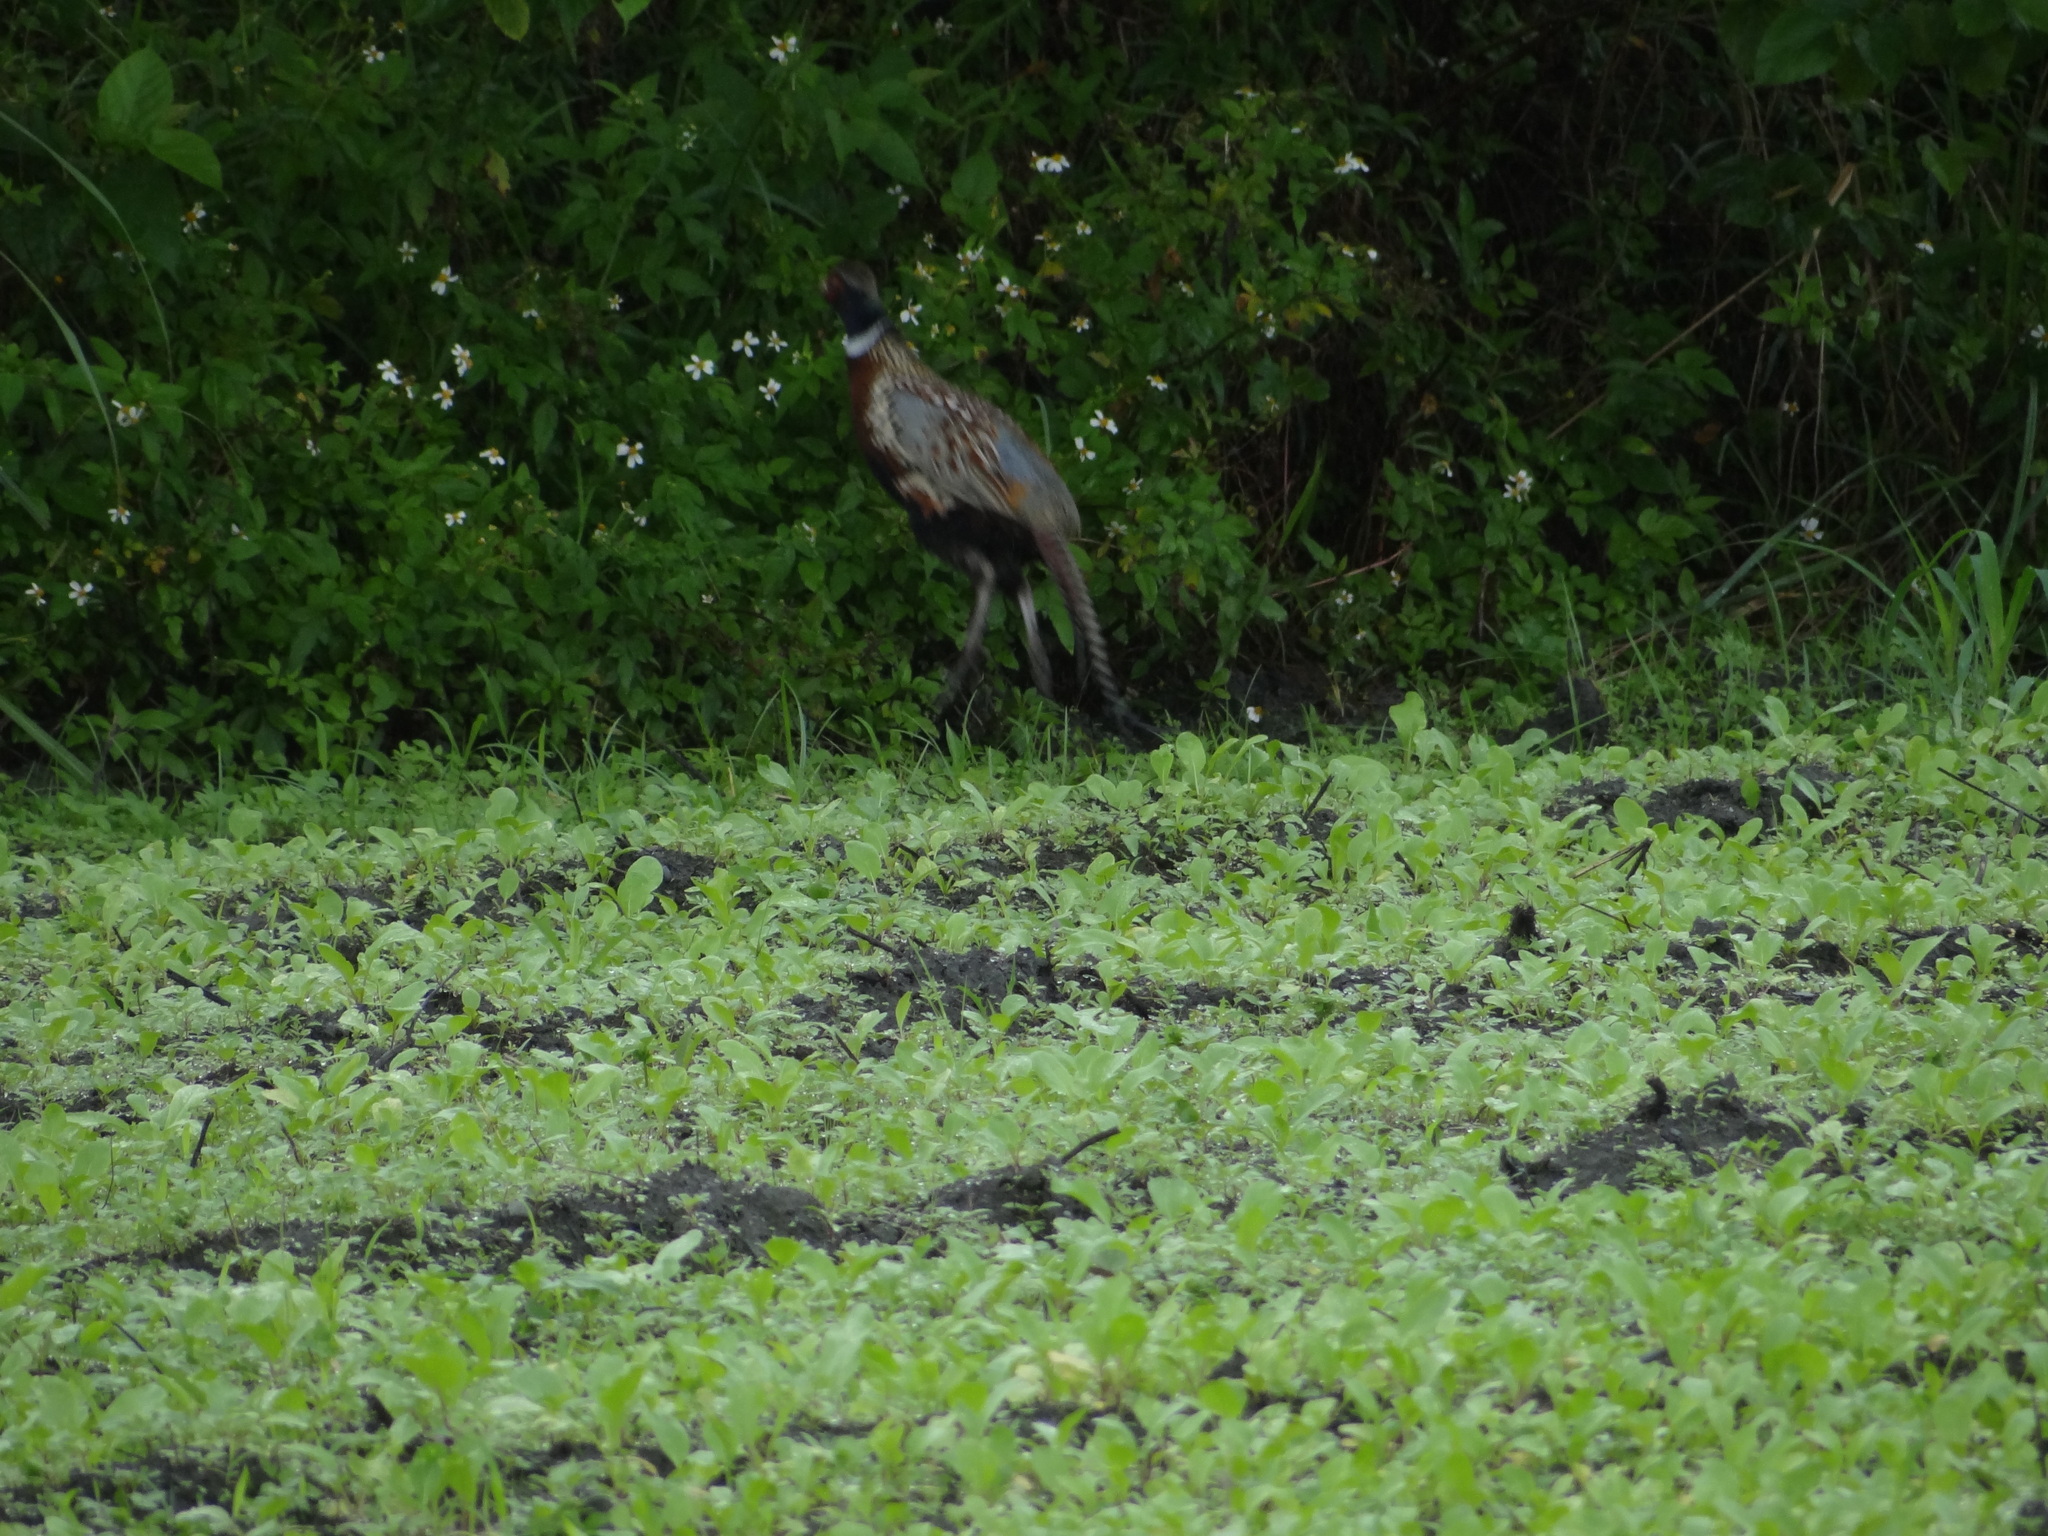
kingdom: Animalia
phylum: Chordata
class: Aves
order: Galliformes
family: Phasianidae
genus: Phasianus
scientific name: Phasianus colchicus
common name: Common pheasant
